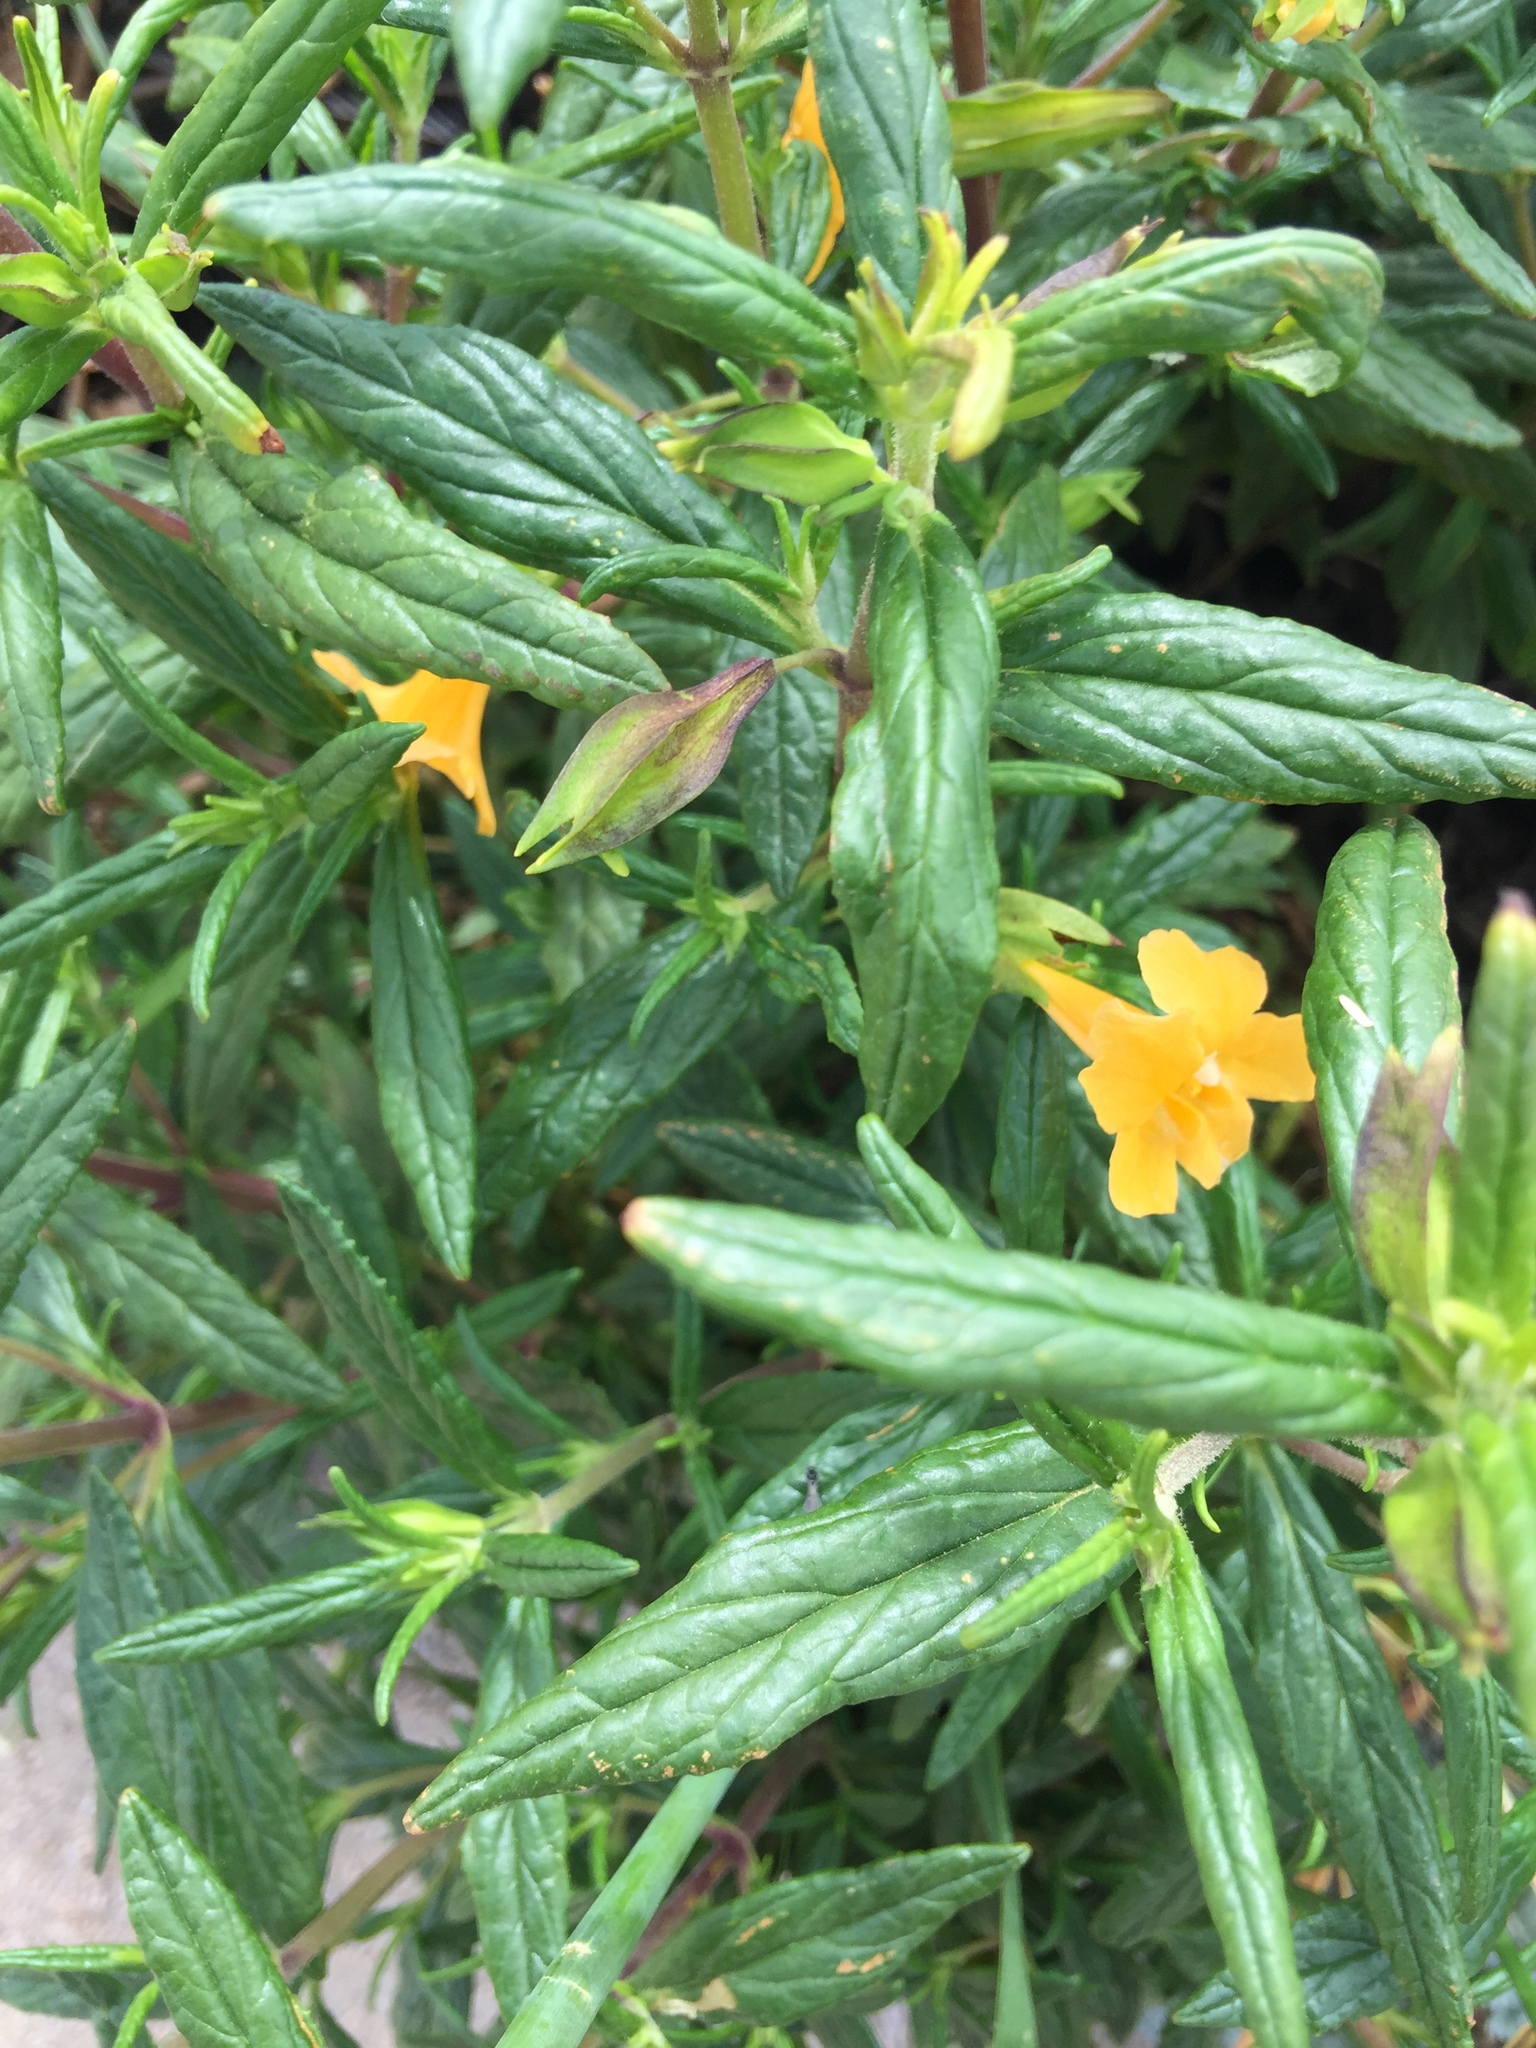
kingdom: Plantae
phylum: Tracheophyta
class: Magnoliopsida
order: Lamiales
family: Phrymaceae
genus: Diplacus
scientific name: Diplacus aurantiacus
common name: Bush monkey-flower
